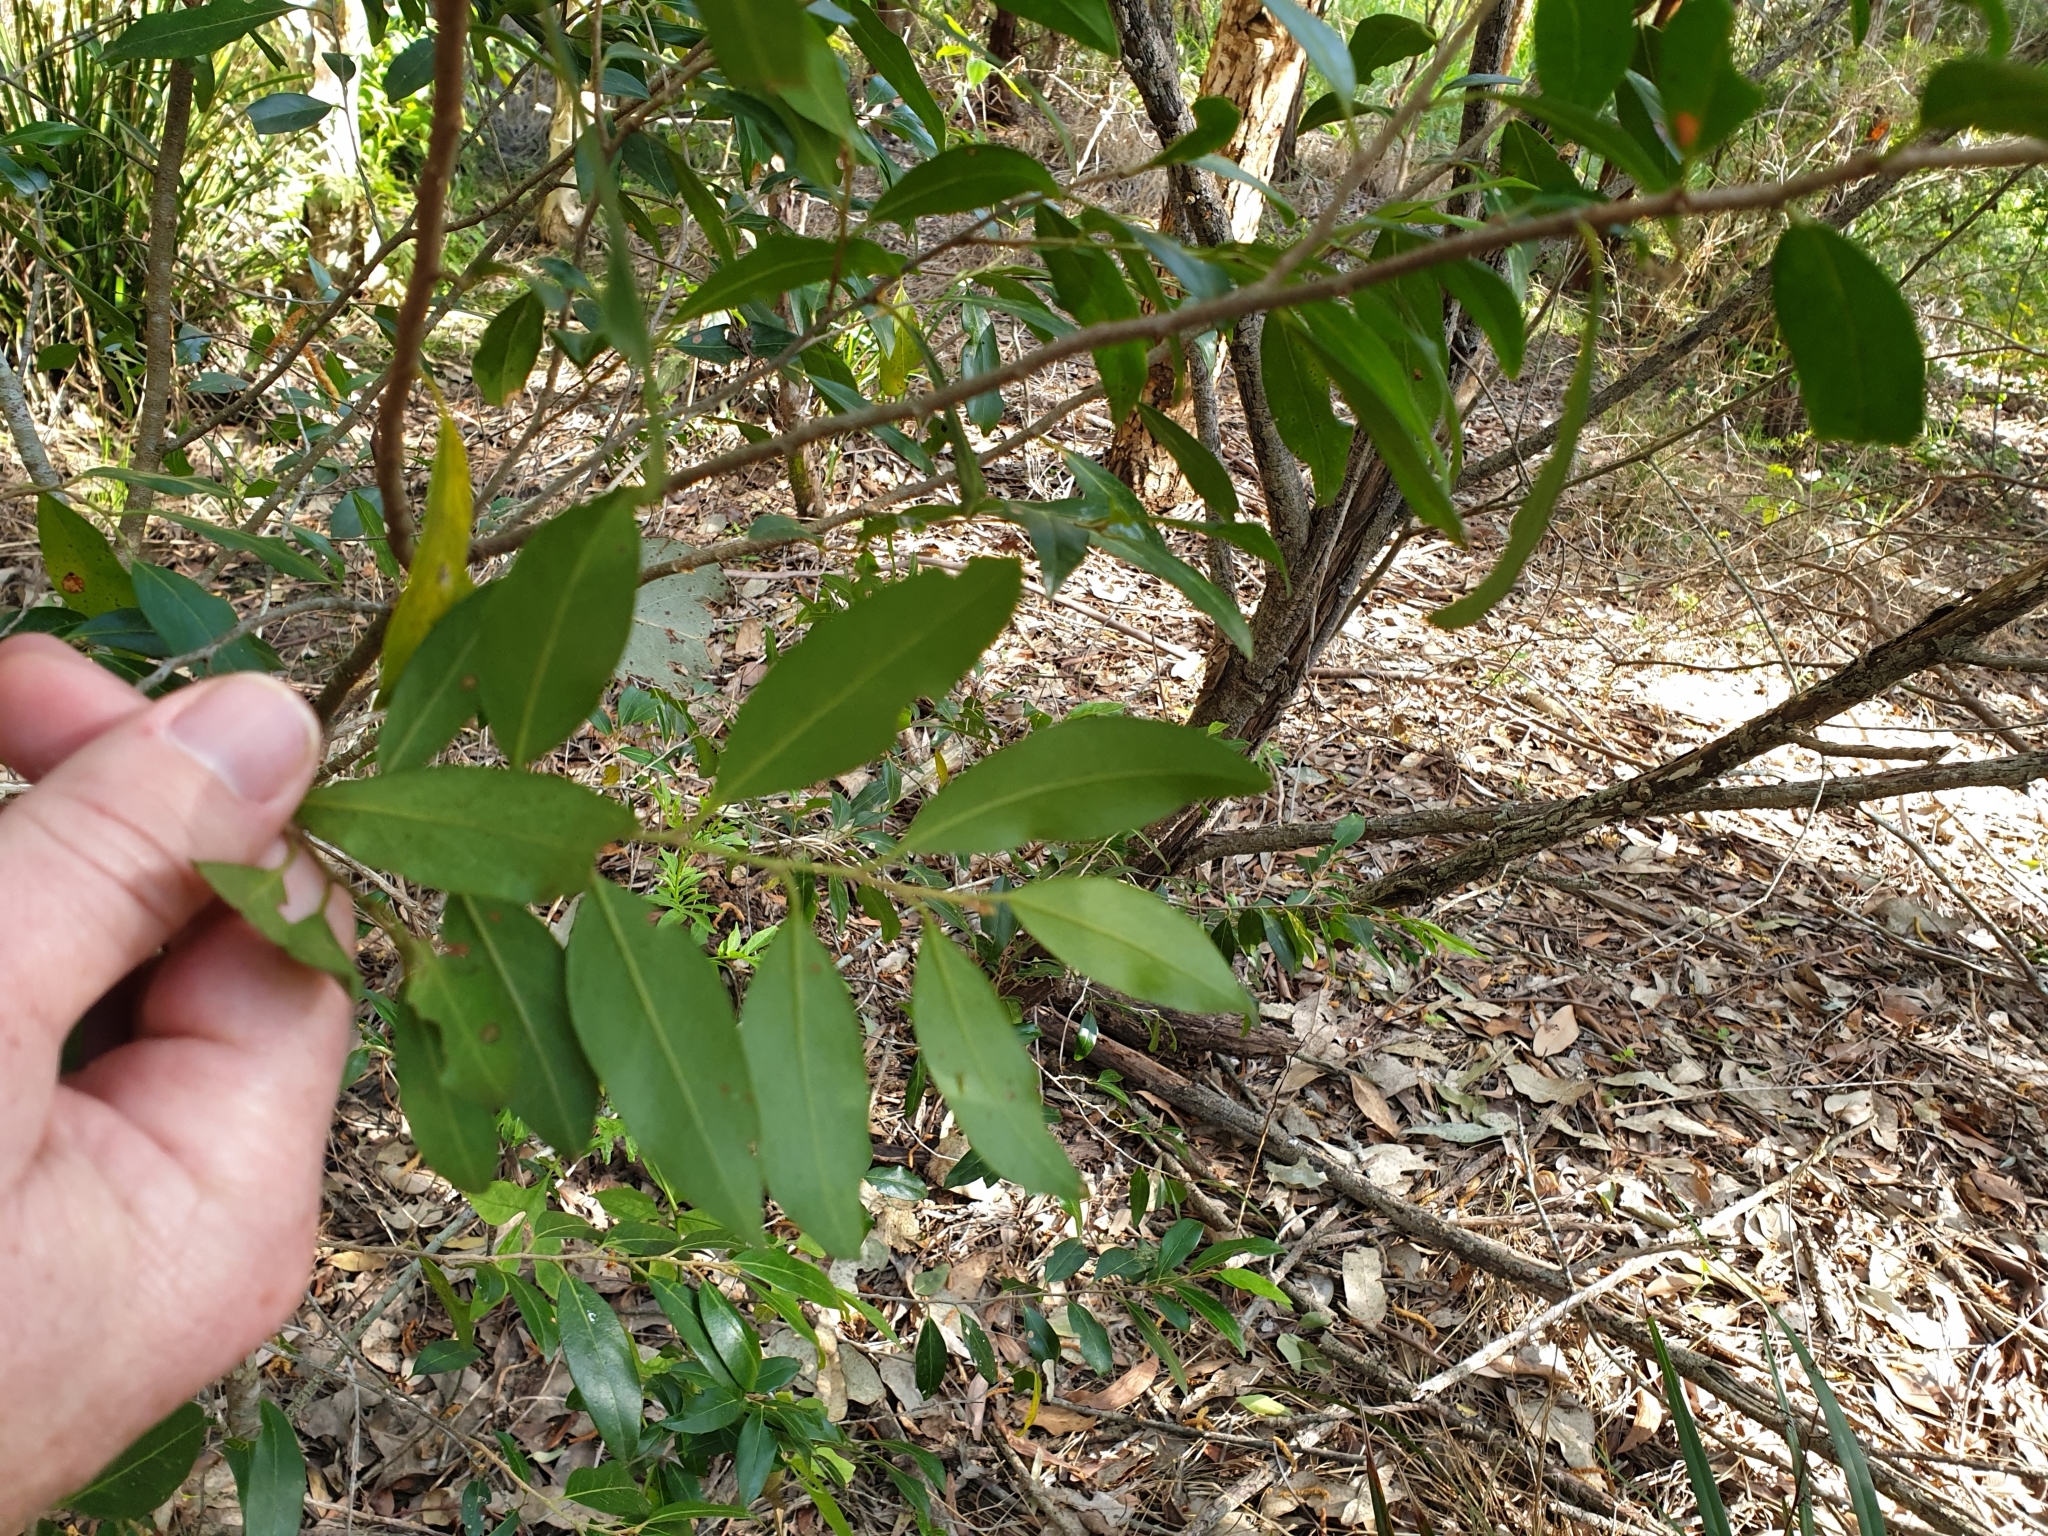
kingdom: Plantae
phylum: Tracheophyta
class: Magnoliopsida
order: Malpighiales
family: Picrodendraceae
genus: Petalostigma
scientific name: Petalostigma triloculare
